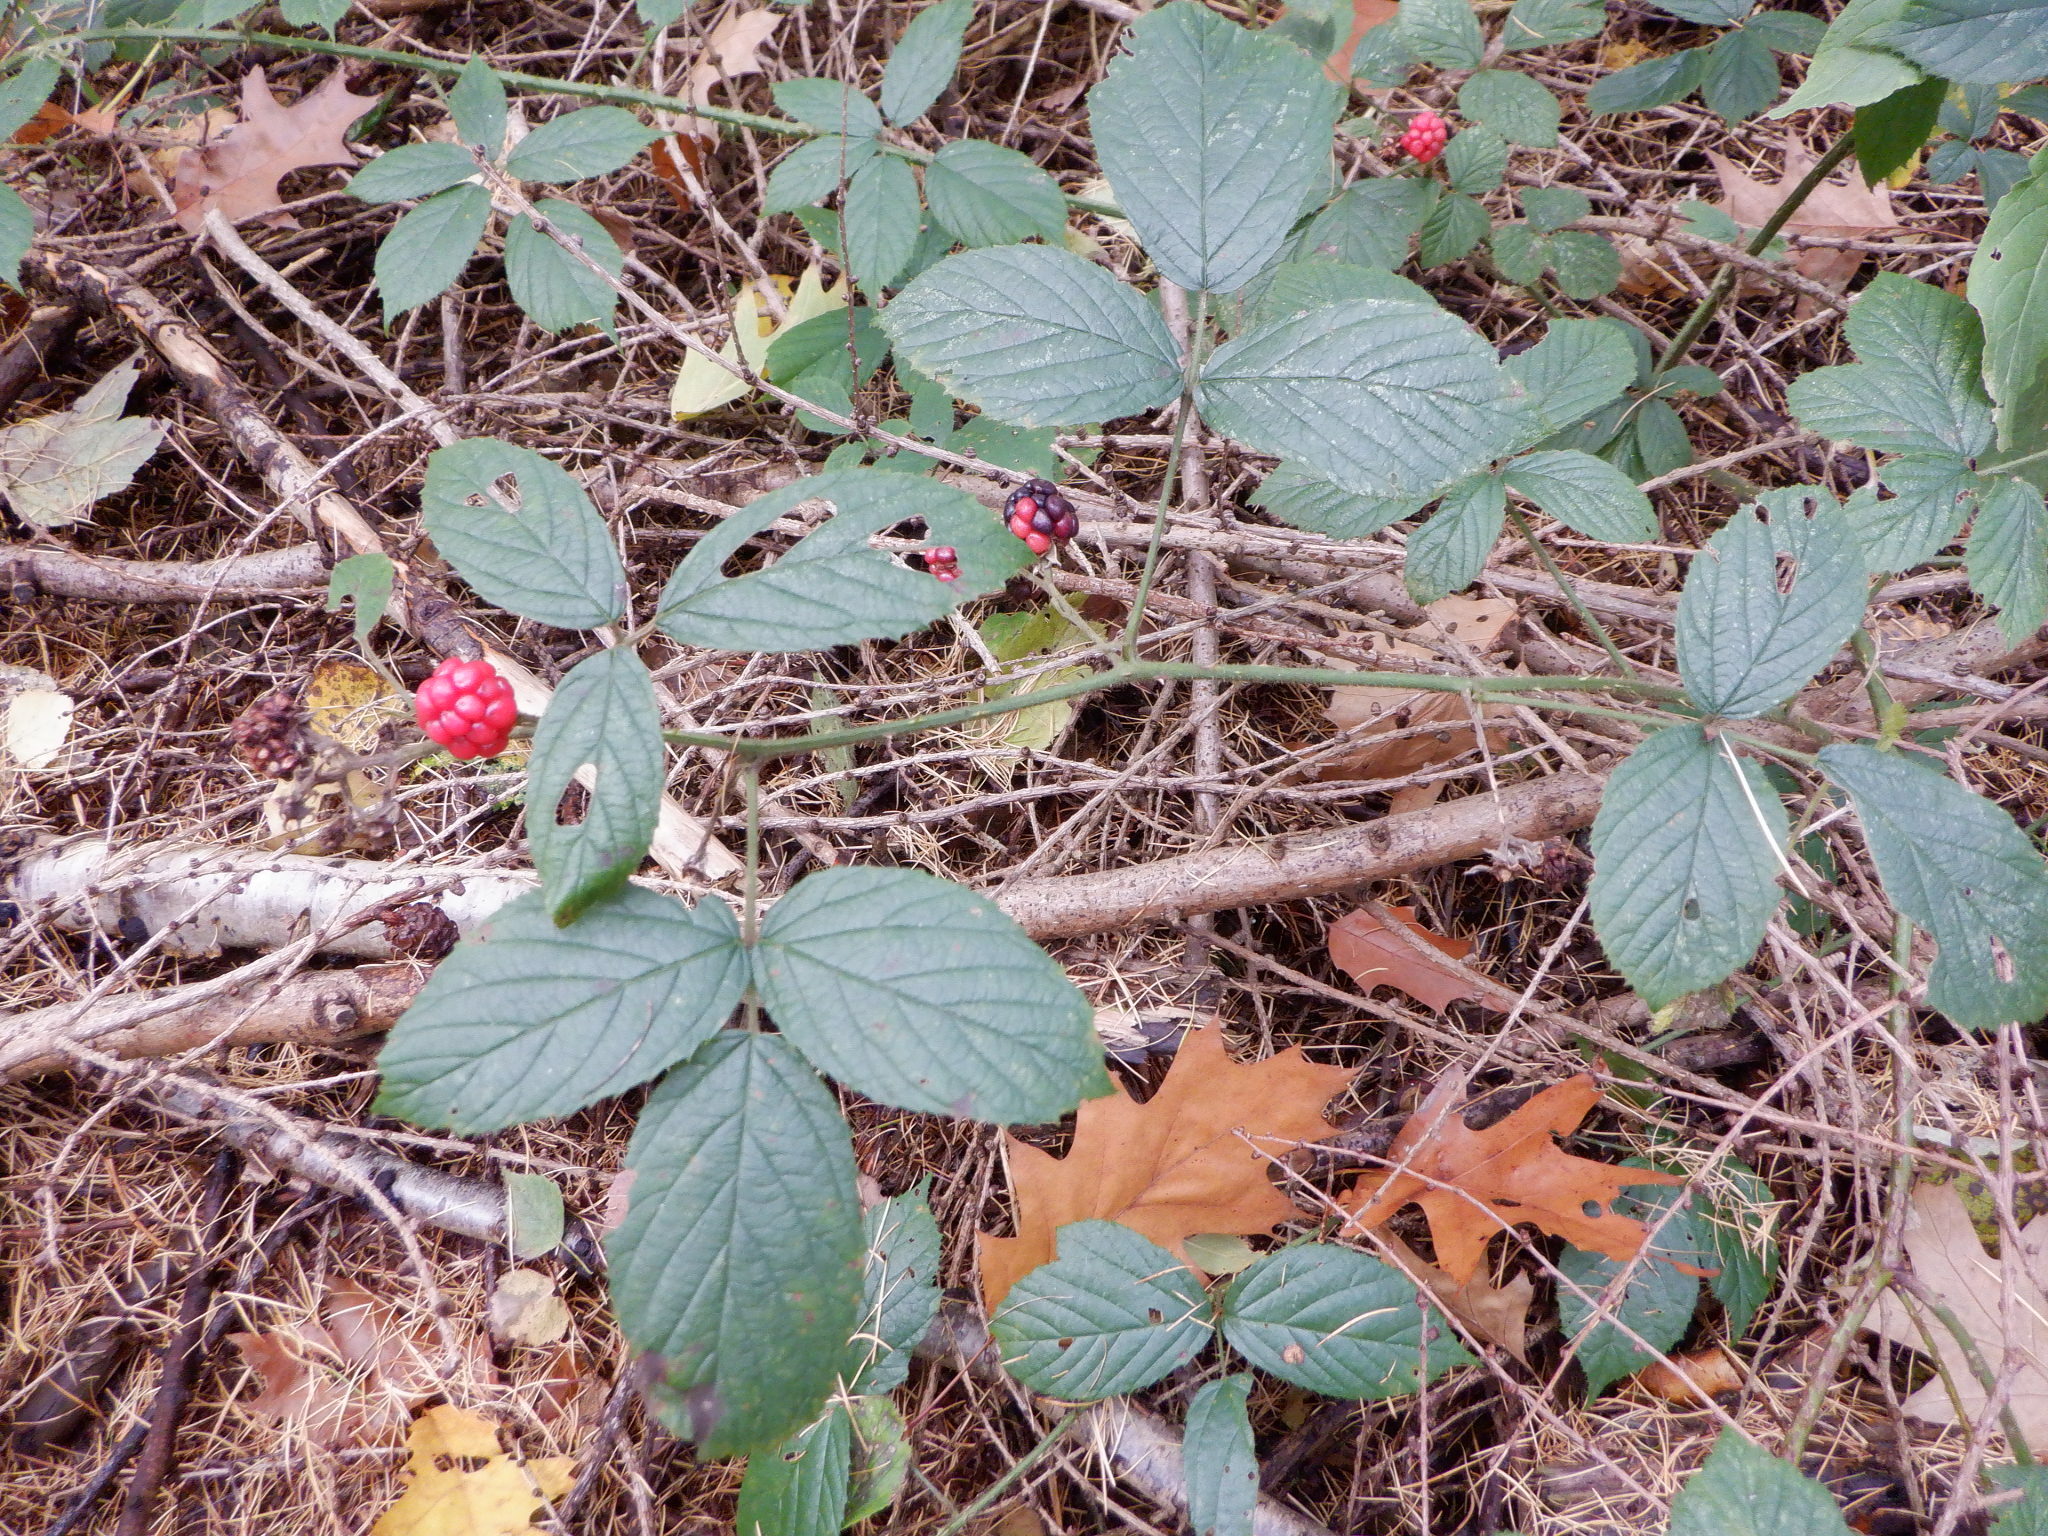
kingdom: Plantae
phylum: Tracheophyta
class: Magnoliopsida
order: Rosales
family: Rosaceae
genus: Rubus
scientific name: Rubus fruticosus
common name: Blackberry, bramble
